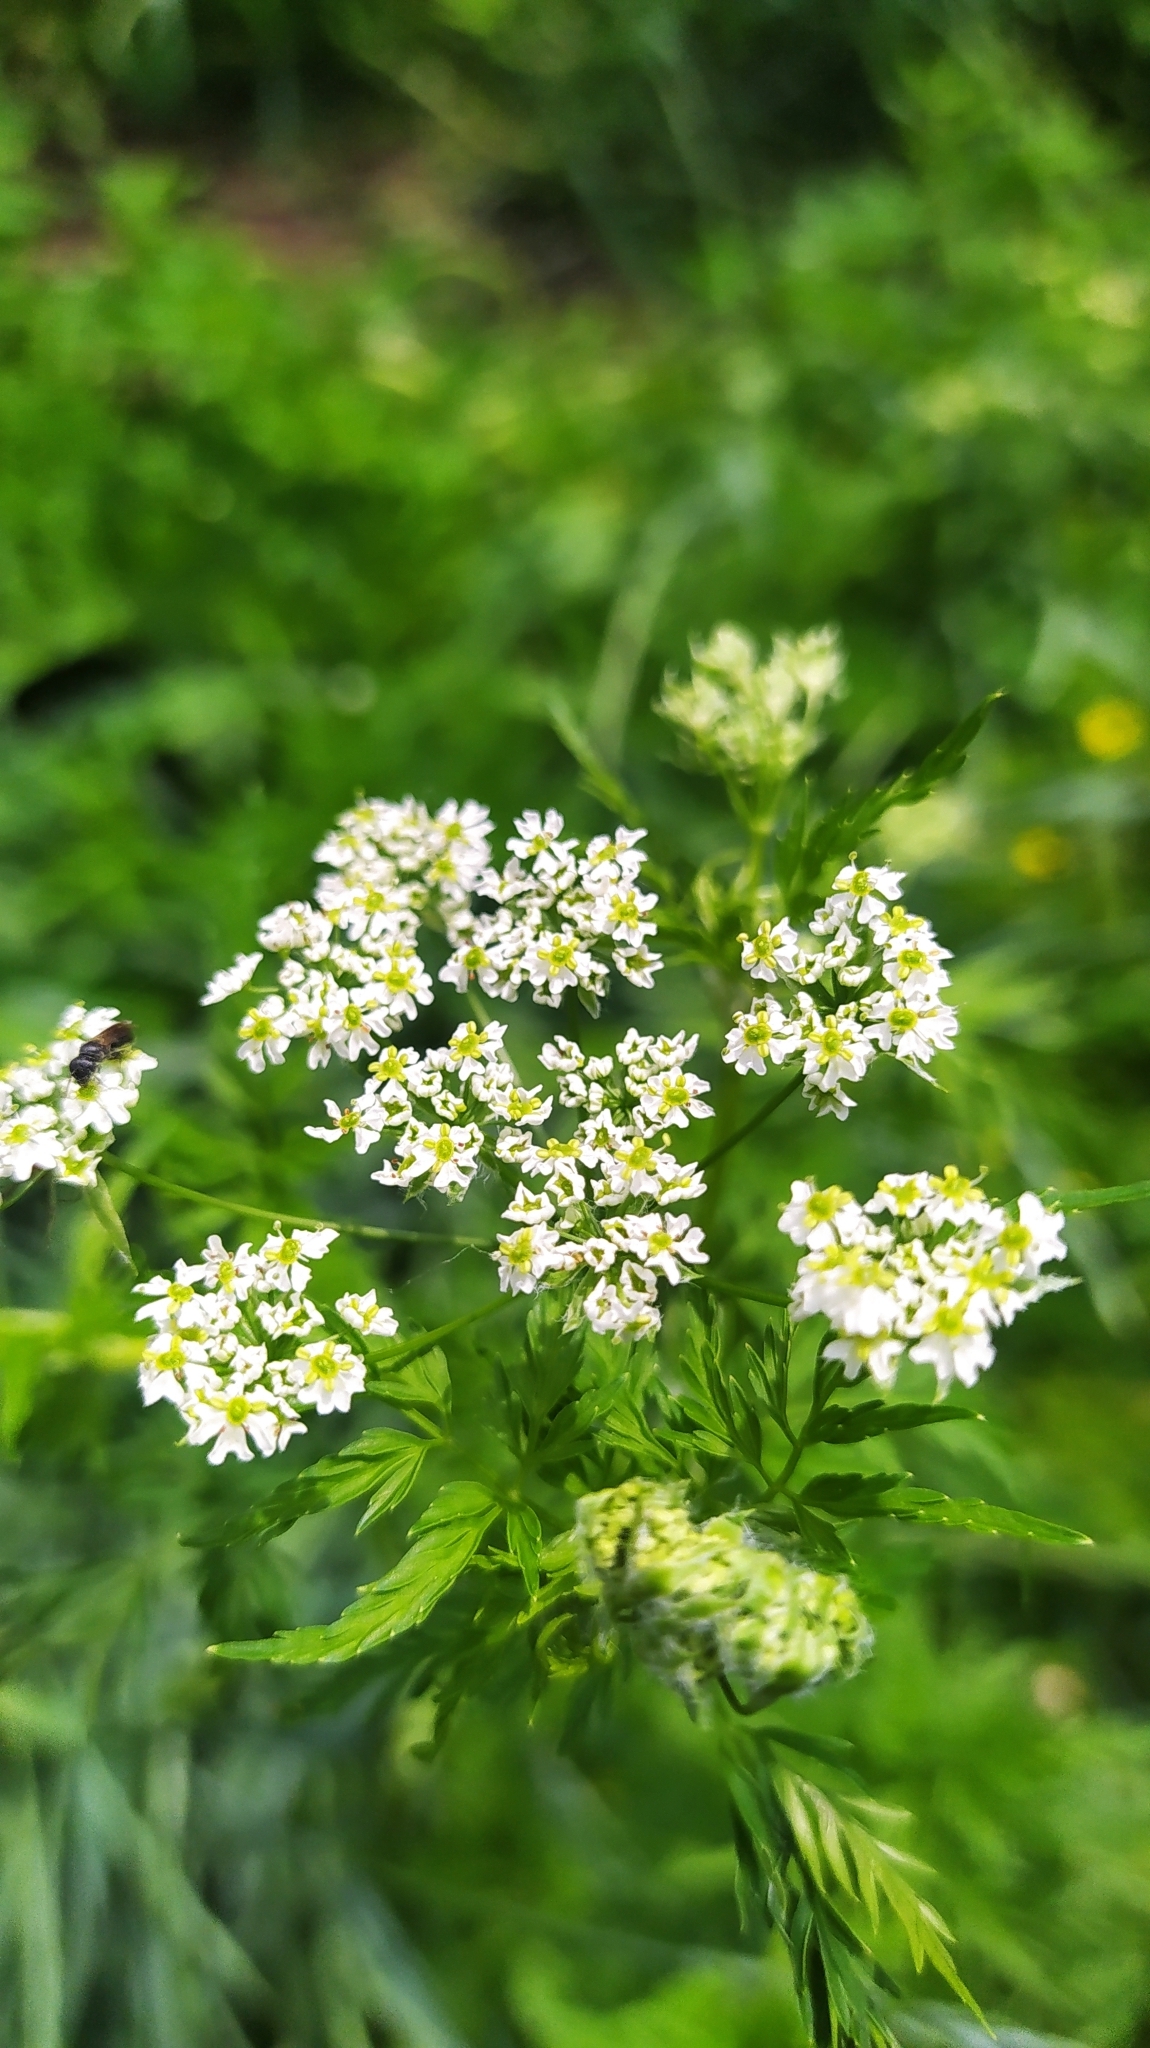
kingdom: Plantae
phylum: Tracheophyta
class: Magnoliopsida
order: Apiales
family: Apiaceae
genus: Sphallerocarpus
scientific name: Sphallerocarpus gracilis
